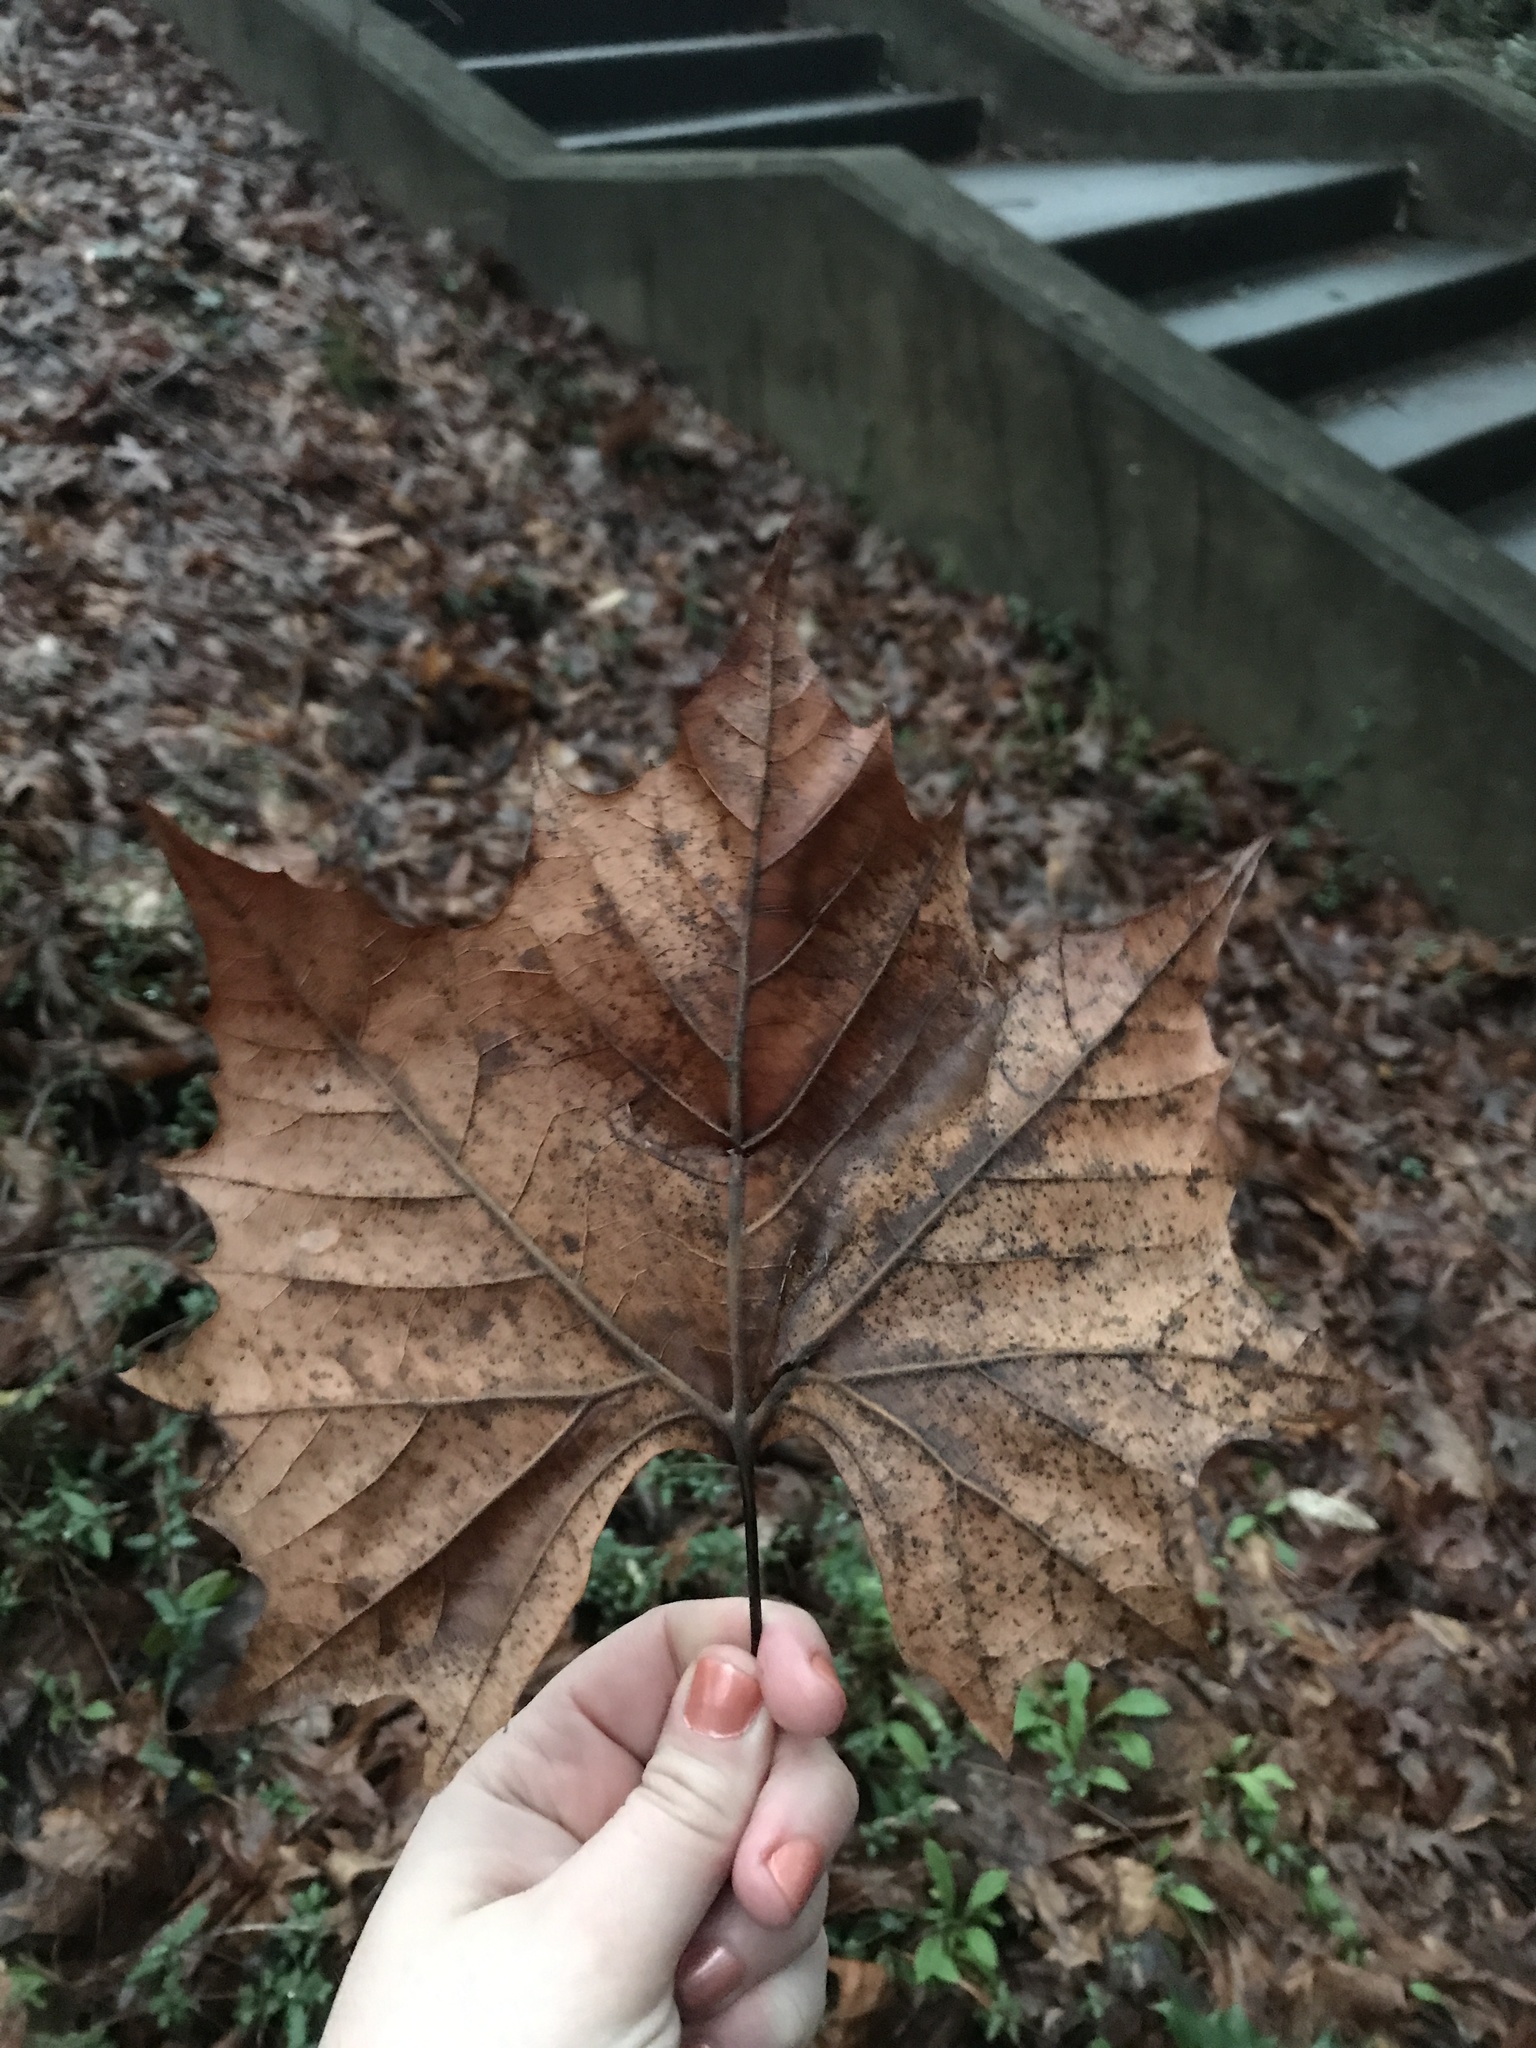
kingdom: Plantae
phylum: Tracheophyta
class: Magnoliopsida
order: Proteales
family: Platanaceae
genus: Platanus
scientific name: Platanus occidentalis
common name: American sycamore
